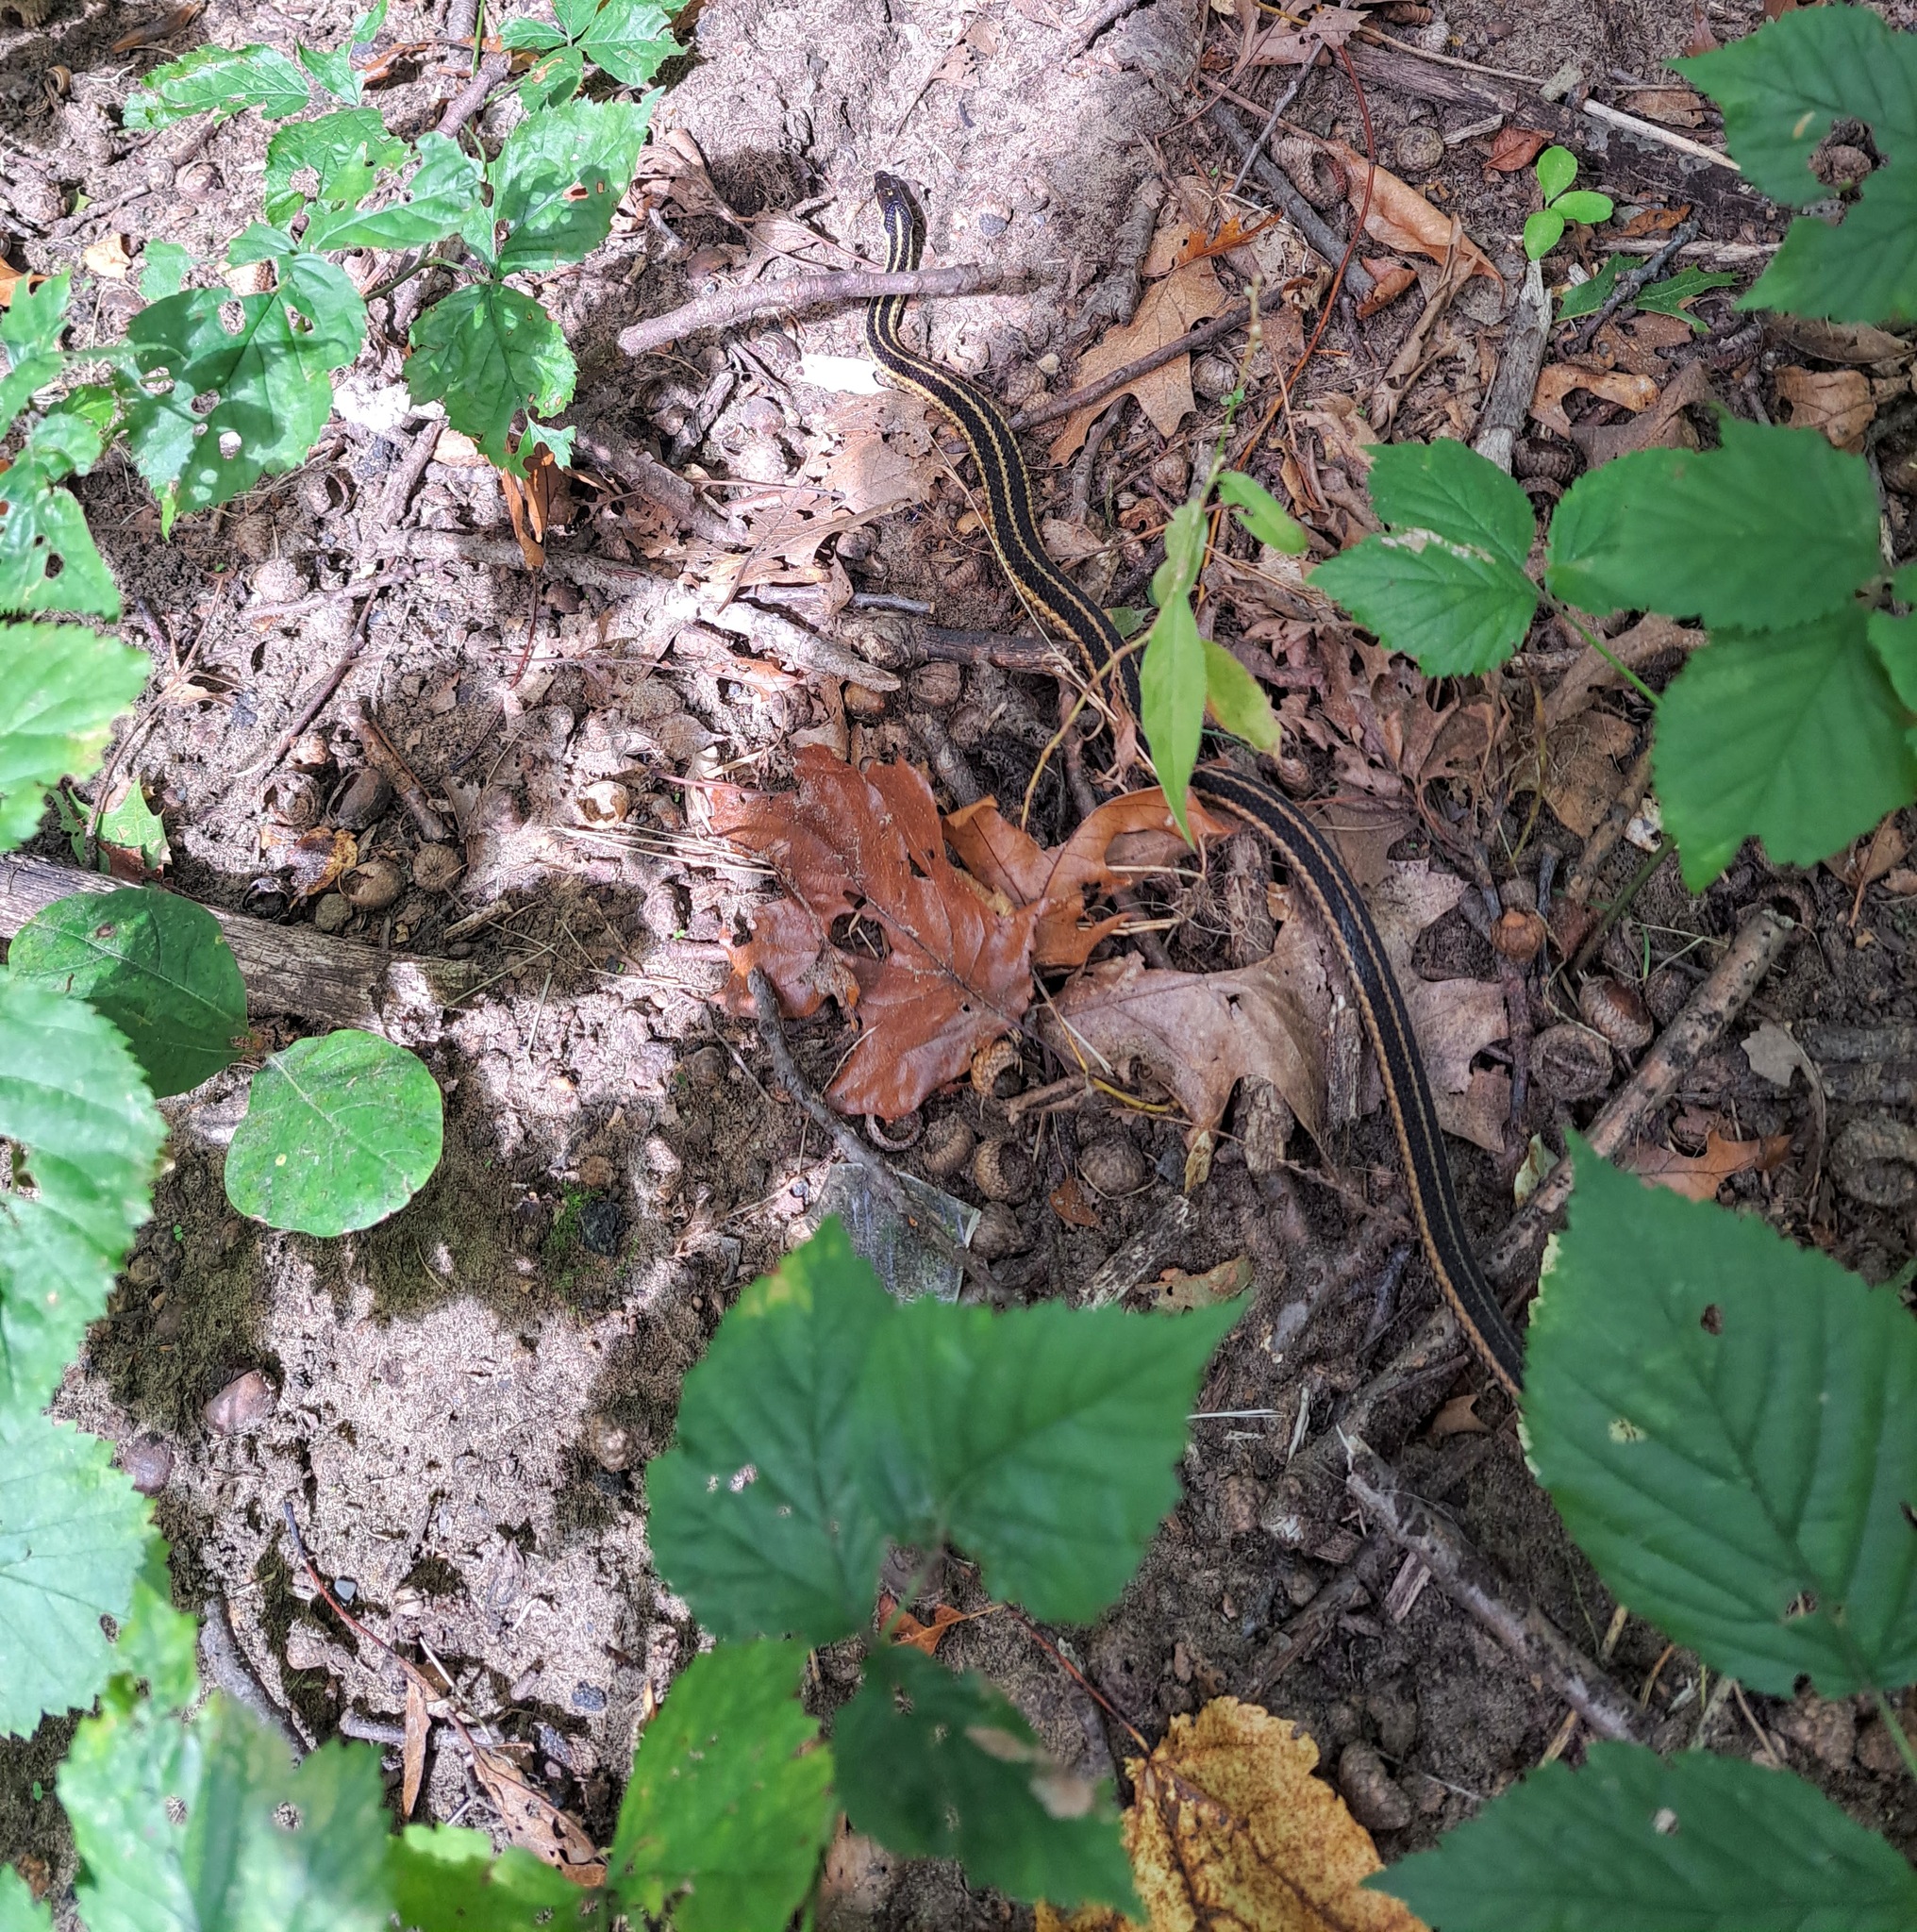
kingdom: Animalia
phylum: Chordata
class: Squamata
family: Colubridae
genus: Thamnophis
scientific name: Thamnophis sirtalis
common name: Common garter snake
